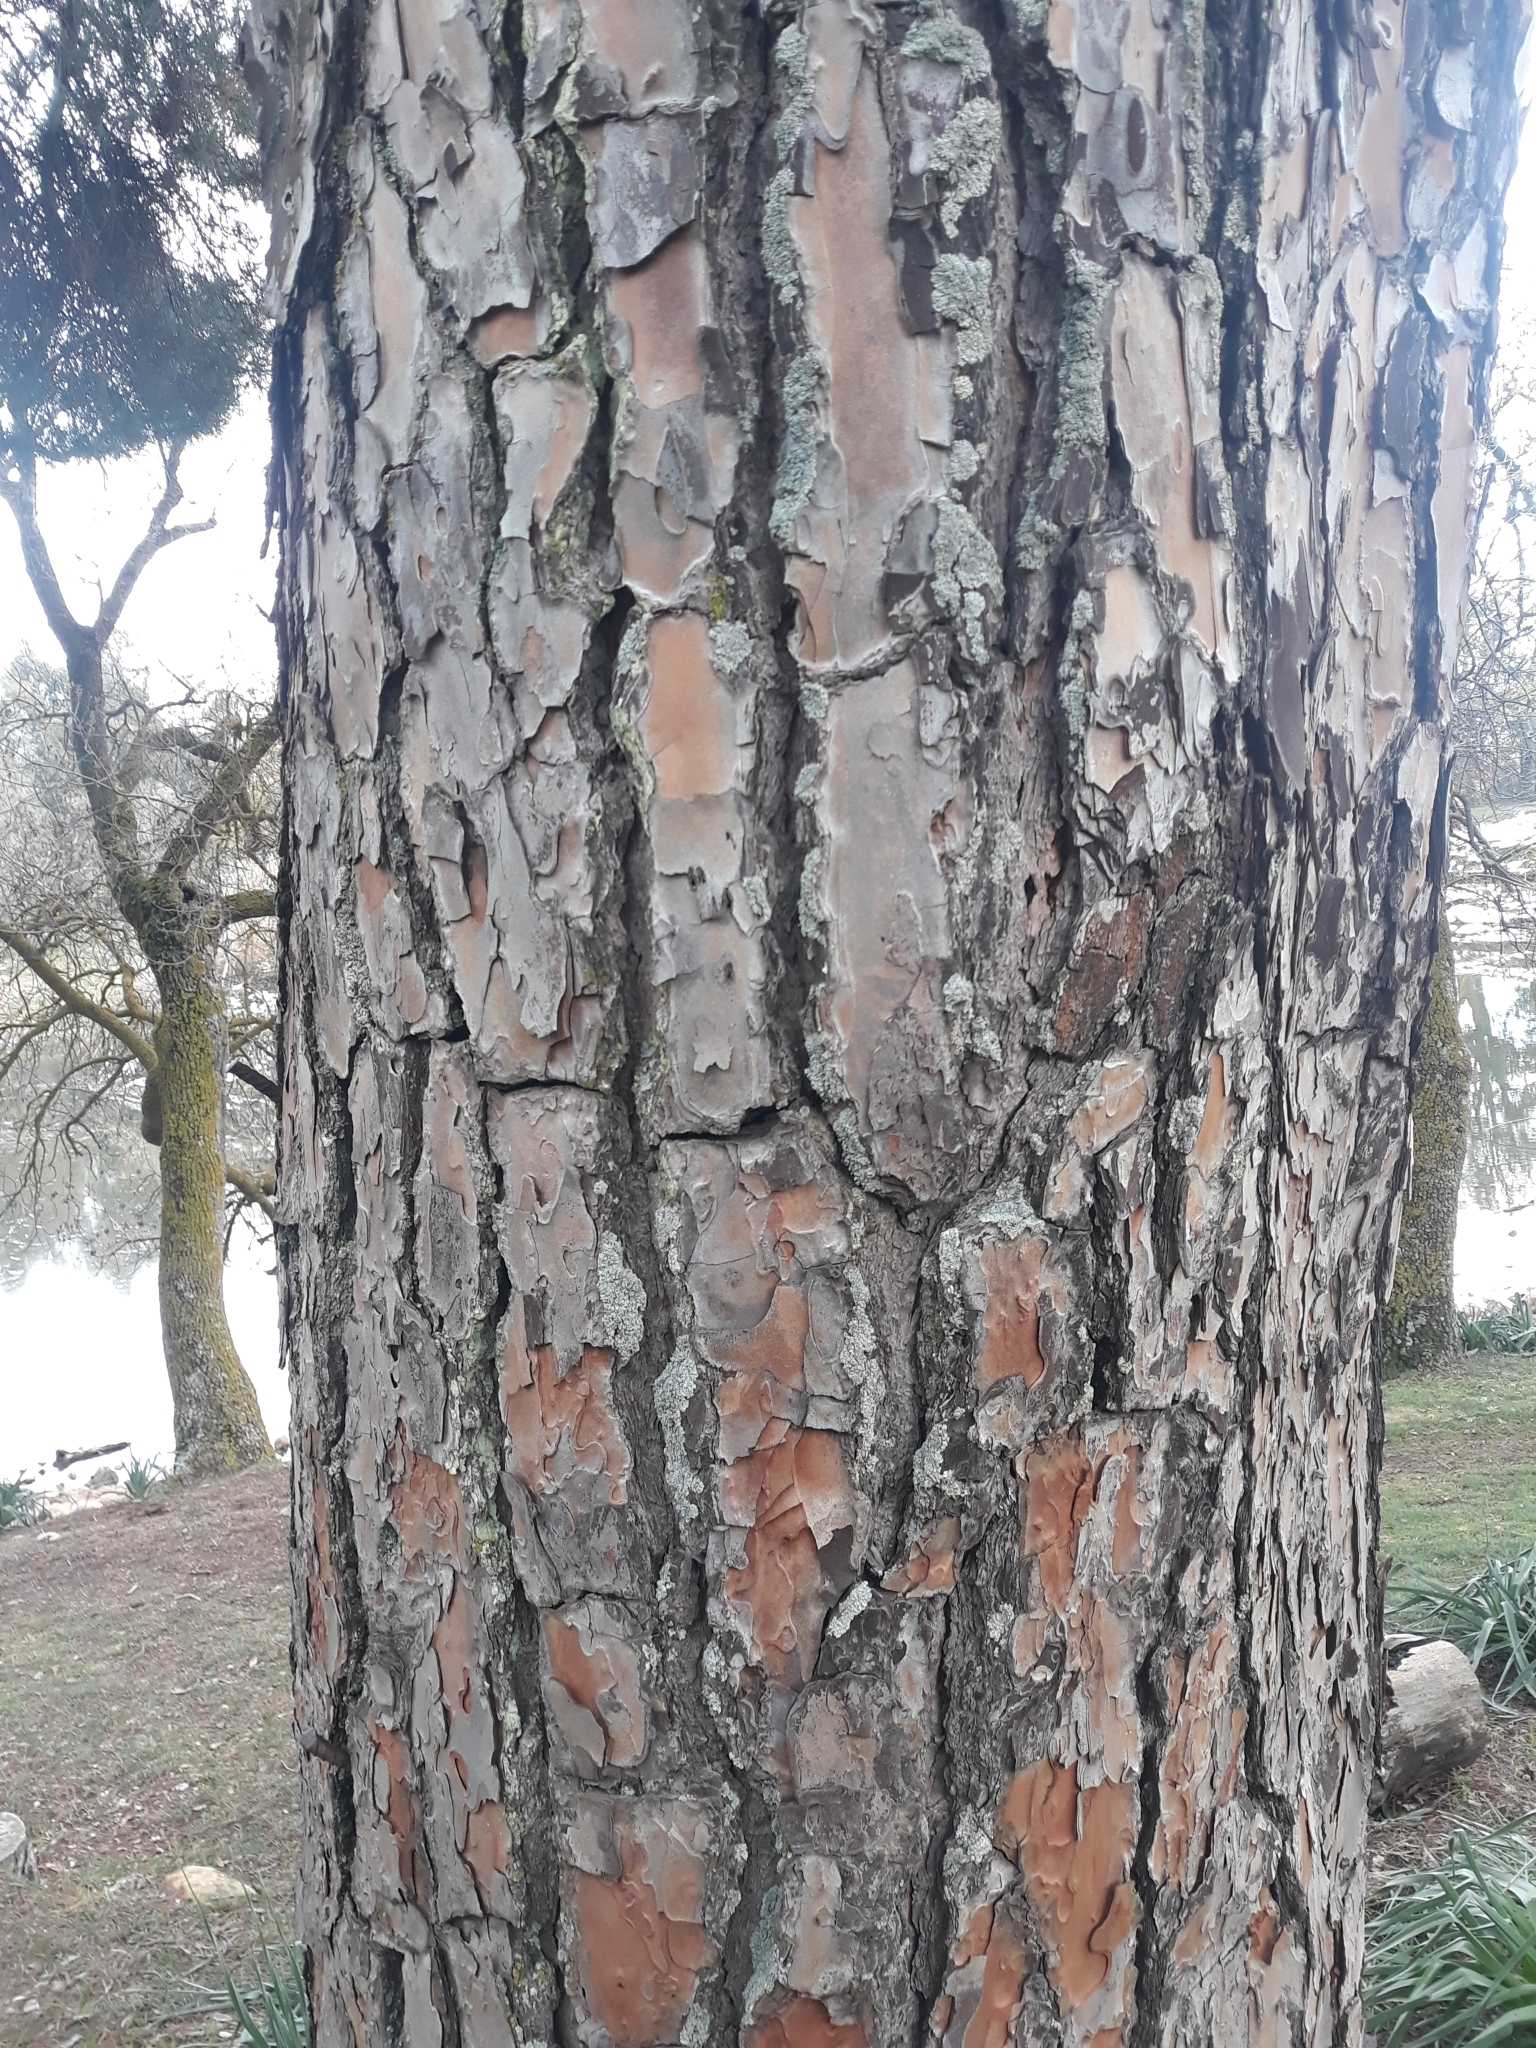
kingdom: Plantae
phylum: Tracheophyta
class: Pinopsida
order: Pinales
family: Pinaceae
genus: Pinus
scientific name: Pinus pinea
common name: Italian stone pine
